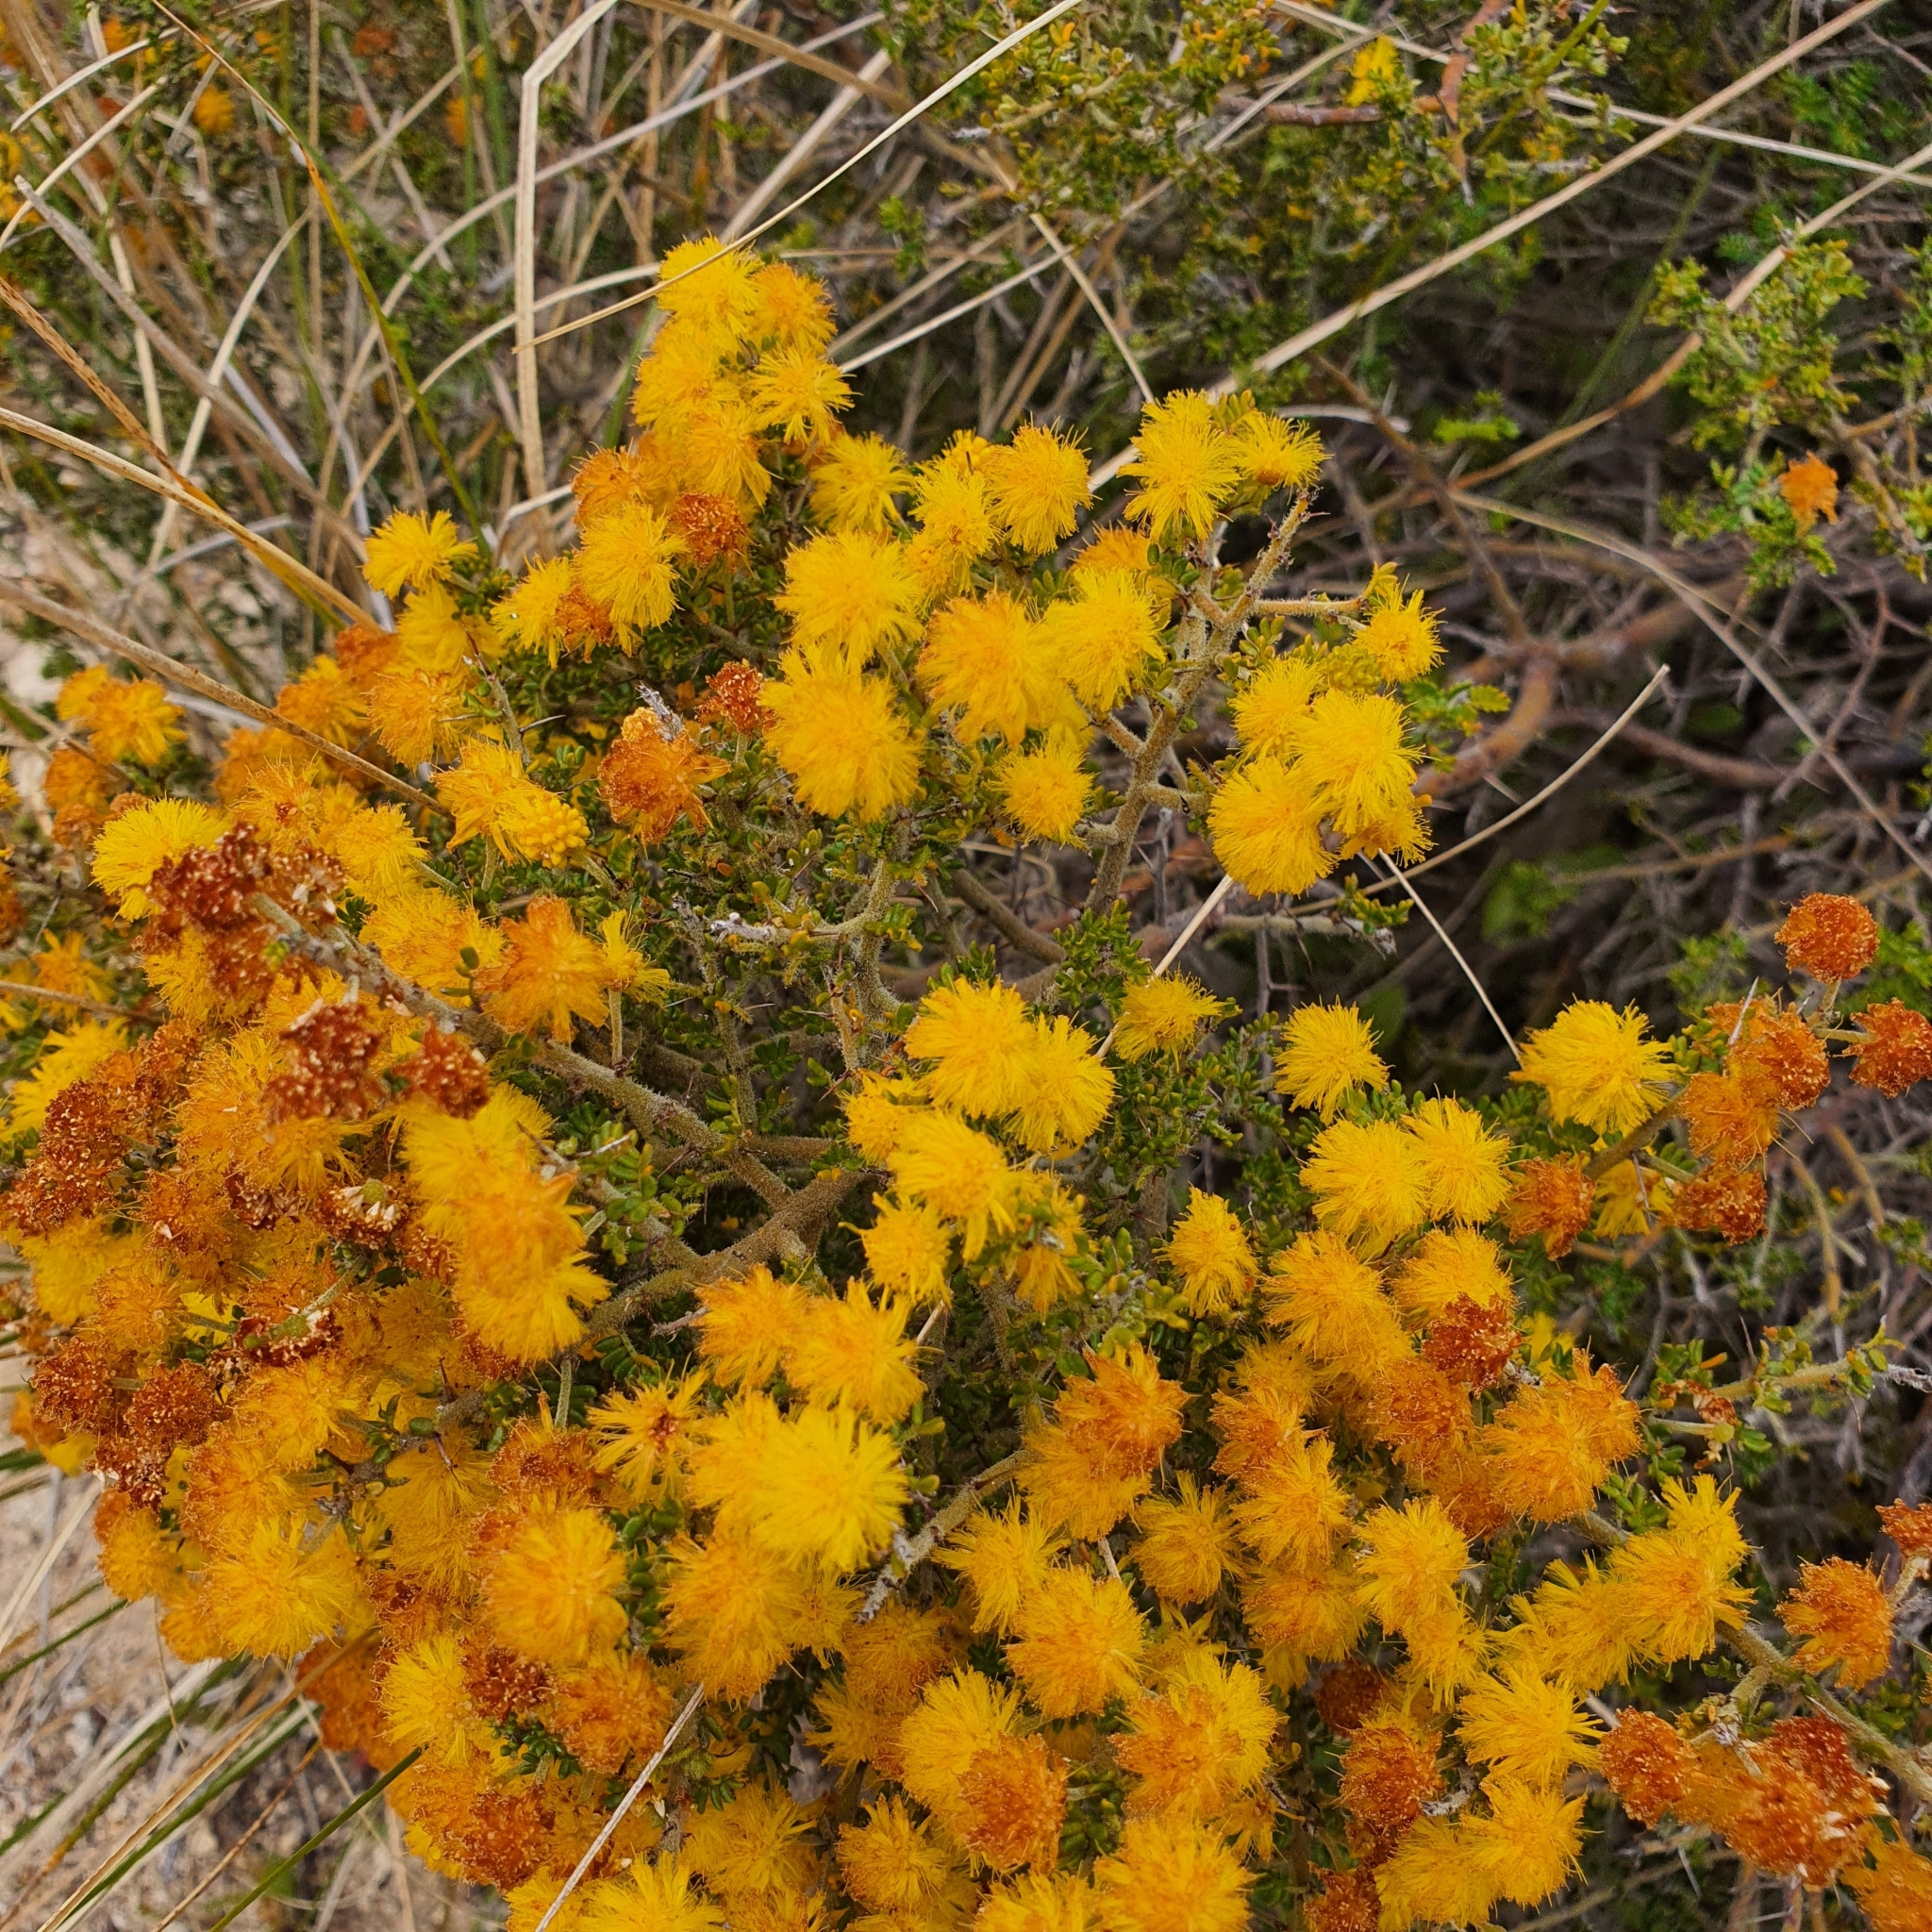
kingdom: Plantae
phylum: Tracheophyta
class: Magnoliopsida
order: Fabales
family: Fabaceae
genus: Acacia
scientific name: Acacia pulchella
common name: Prickly moses
